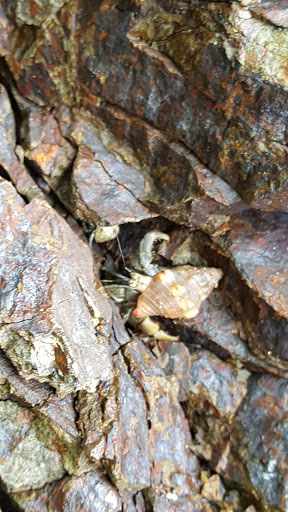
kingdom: Animalia
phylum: Arthropoda
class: Malacostraca
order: Decapoda
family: Coenobitidae
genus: Coenobita
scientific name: Coenobita compressus
